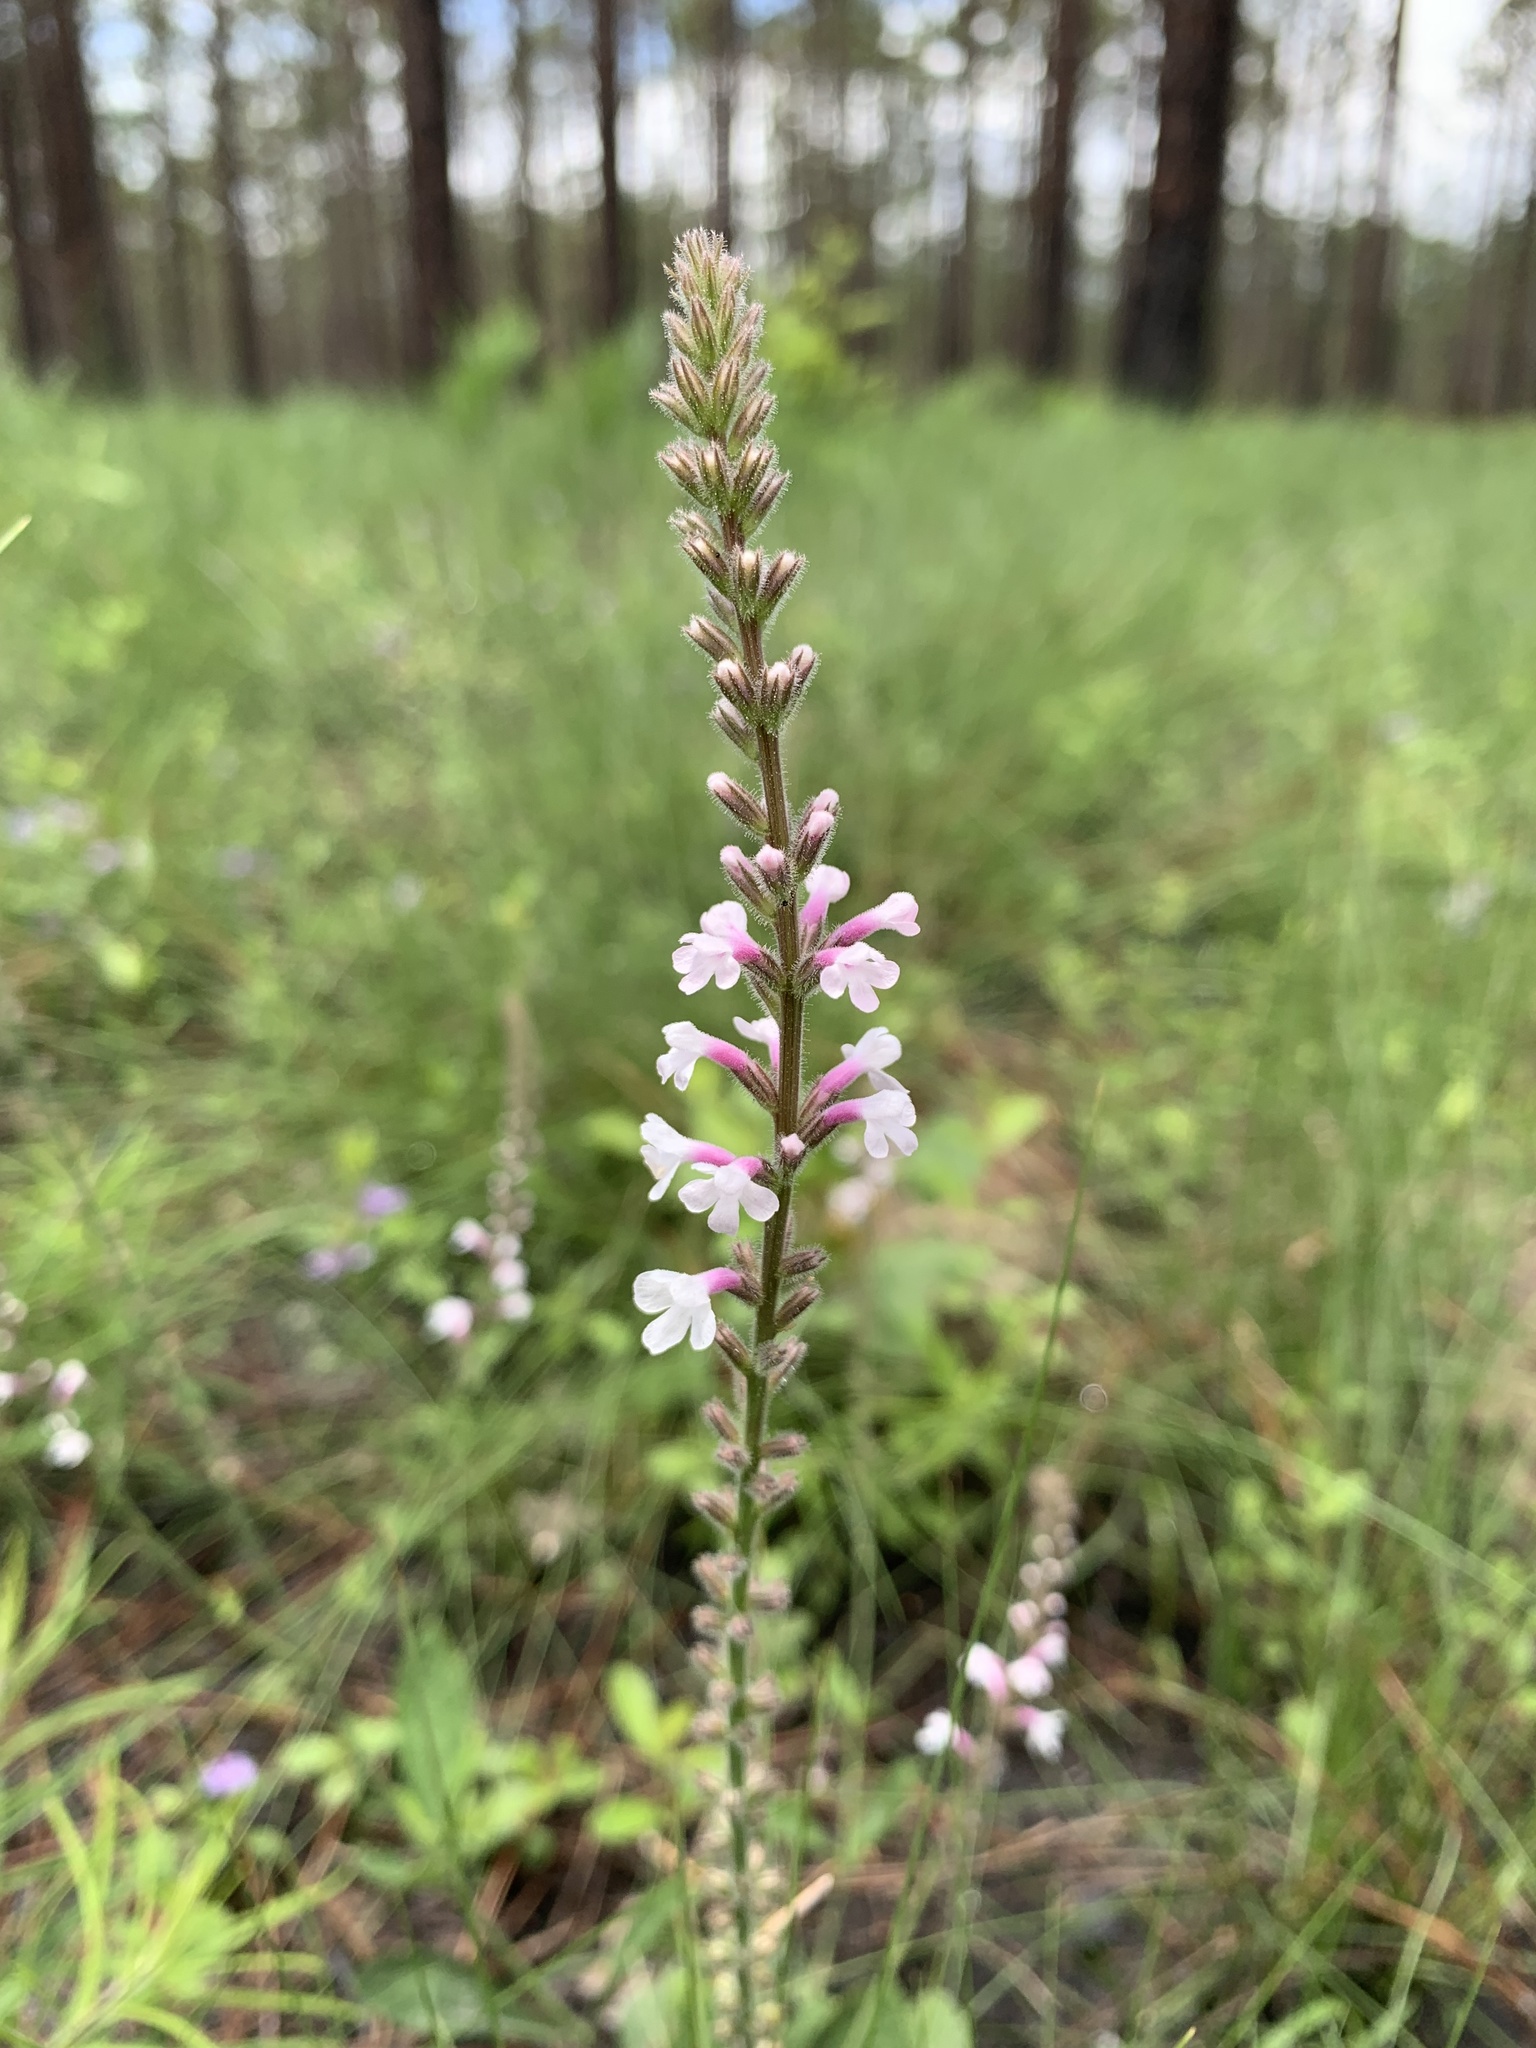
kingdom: Plantae
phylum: Tracheophyta
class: Magnoliopsida
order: Lamiales
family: Verbenaceae
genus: Verbena
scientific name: Verbena carnea
